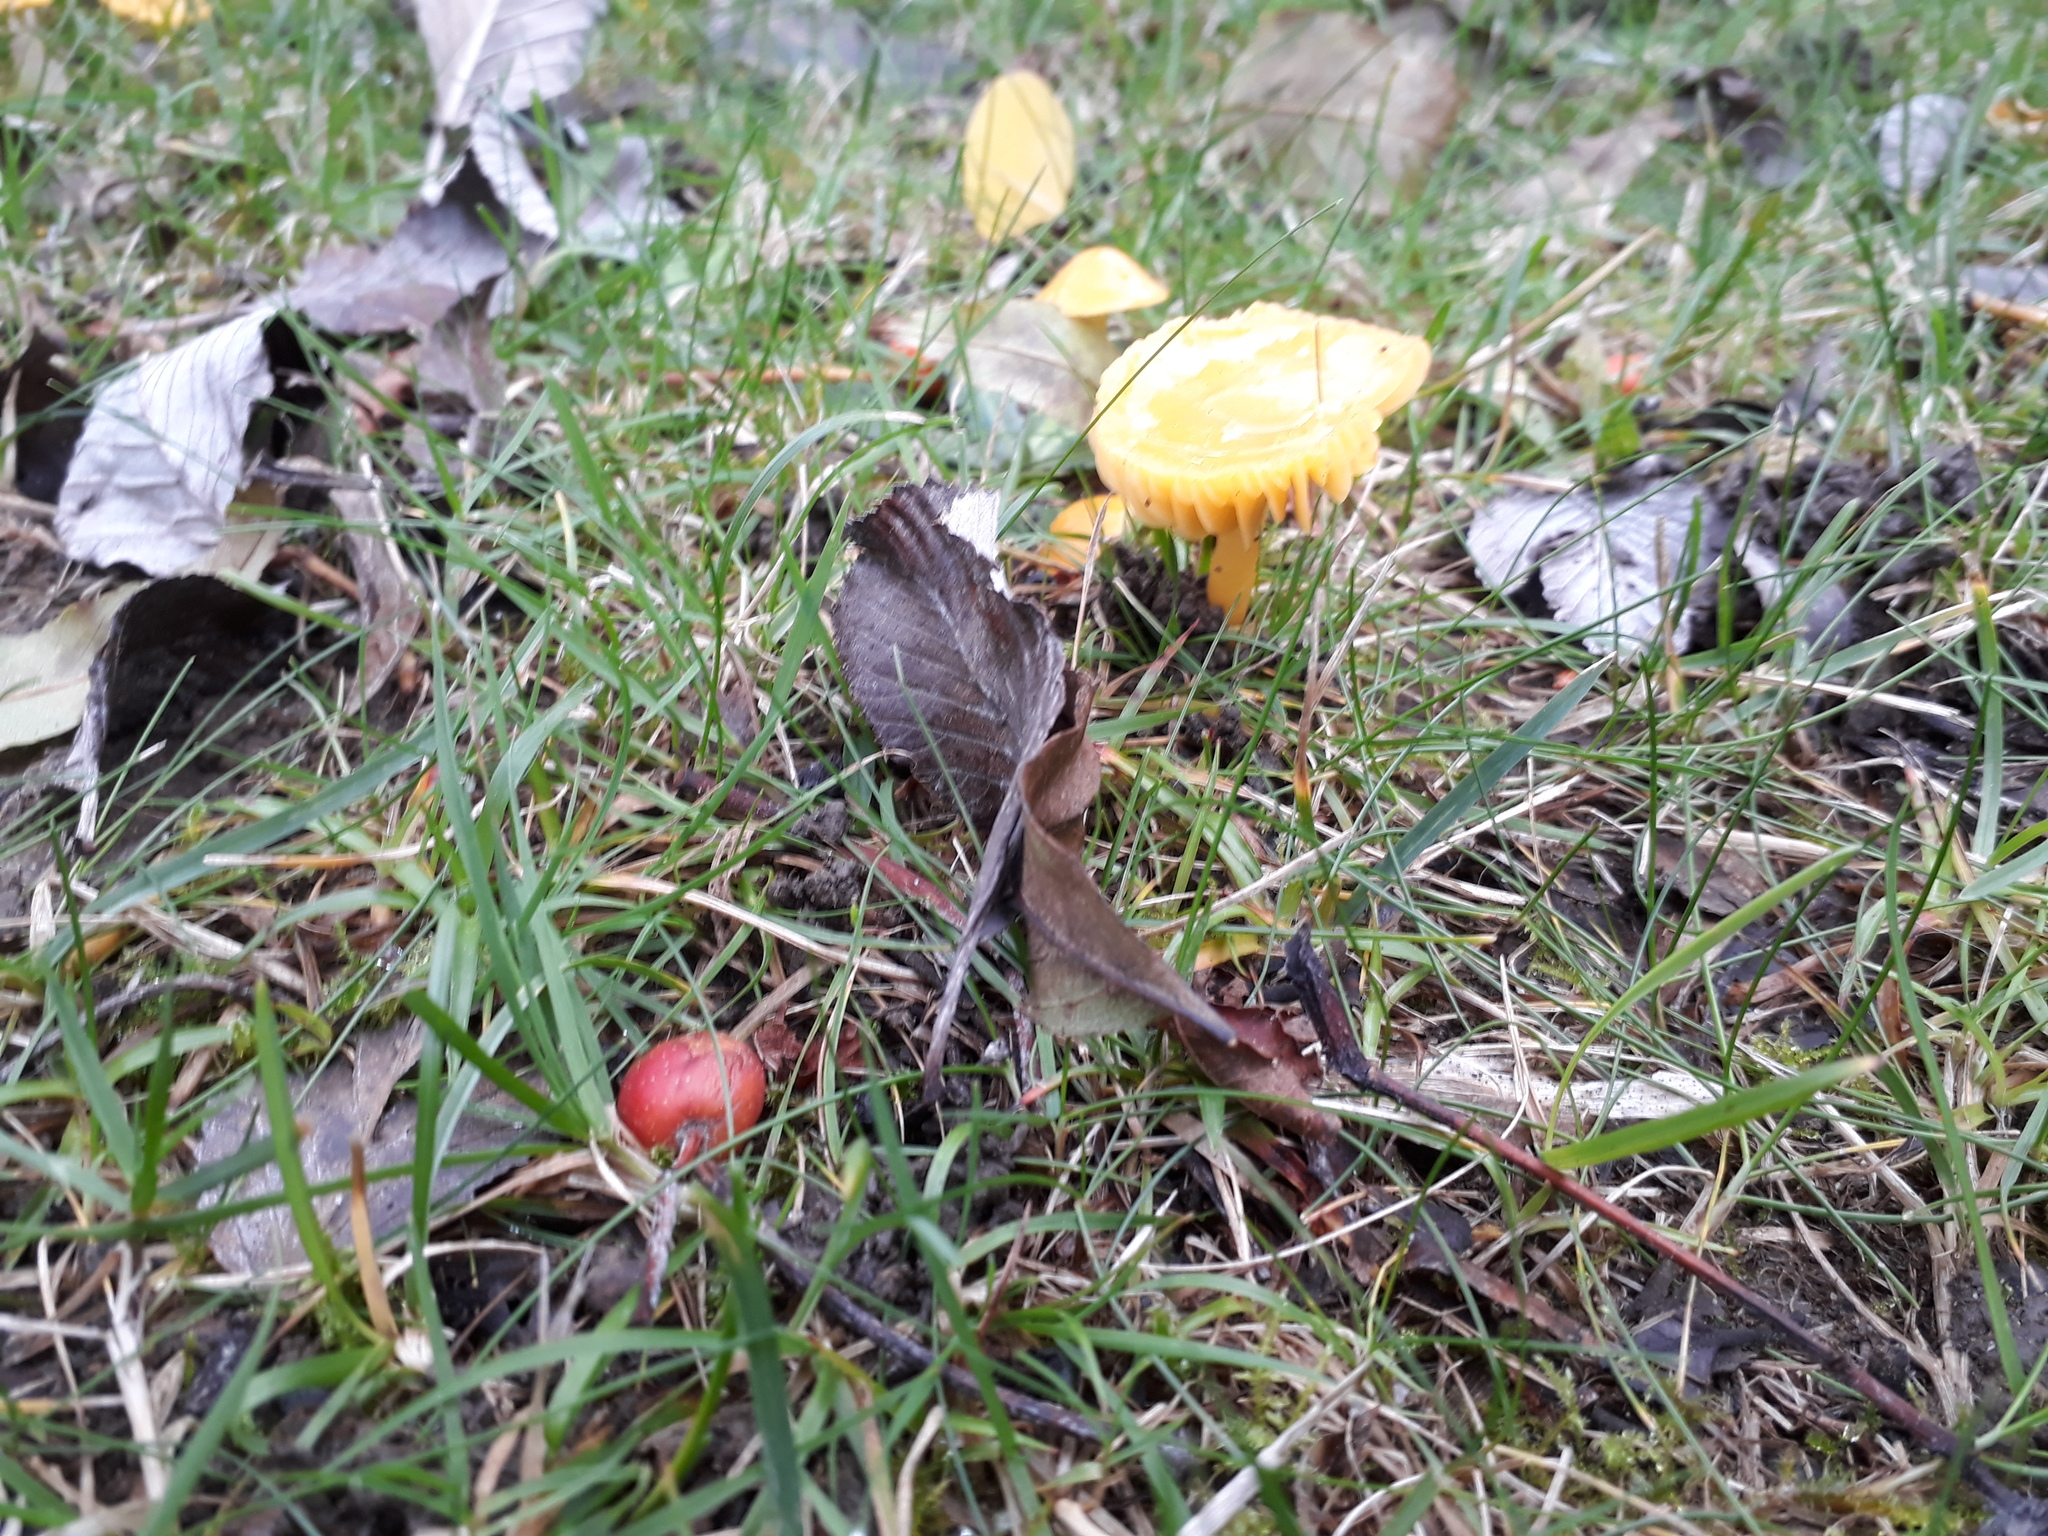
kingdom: Fungi
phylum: Basidiomycota
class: Agaricomycetes
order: Agaricales
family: Hygrophoraceae
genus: Gliophorus
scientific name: Gliophorus psittacinus
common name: Parrot wax-cap
